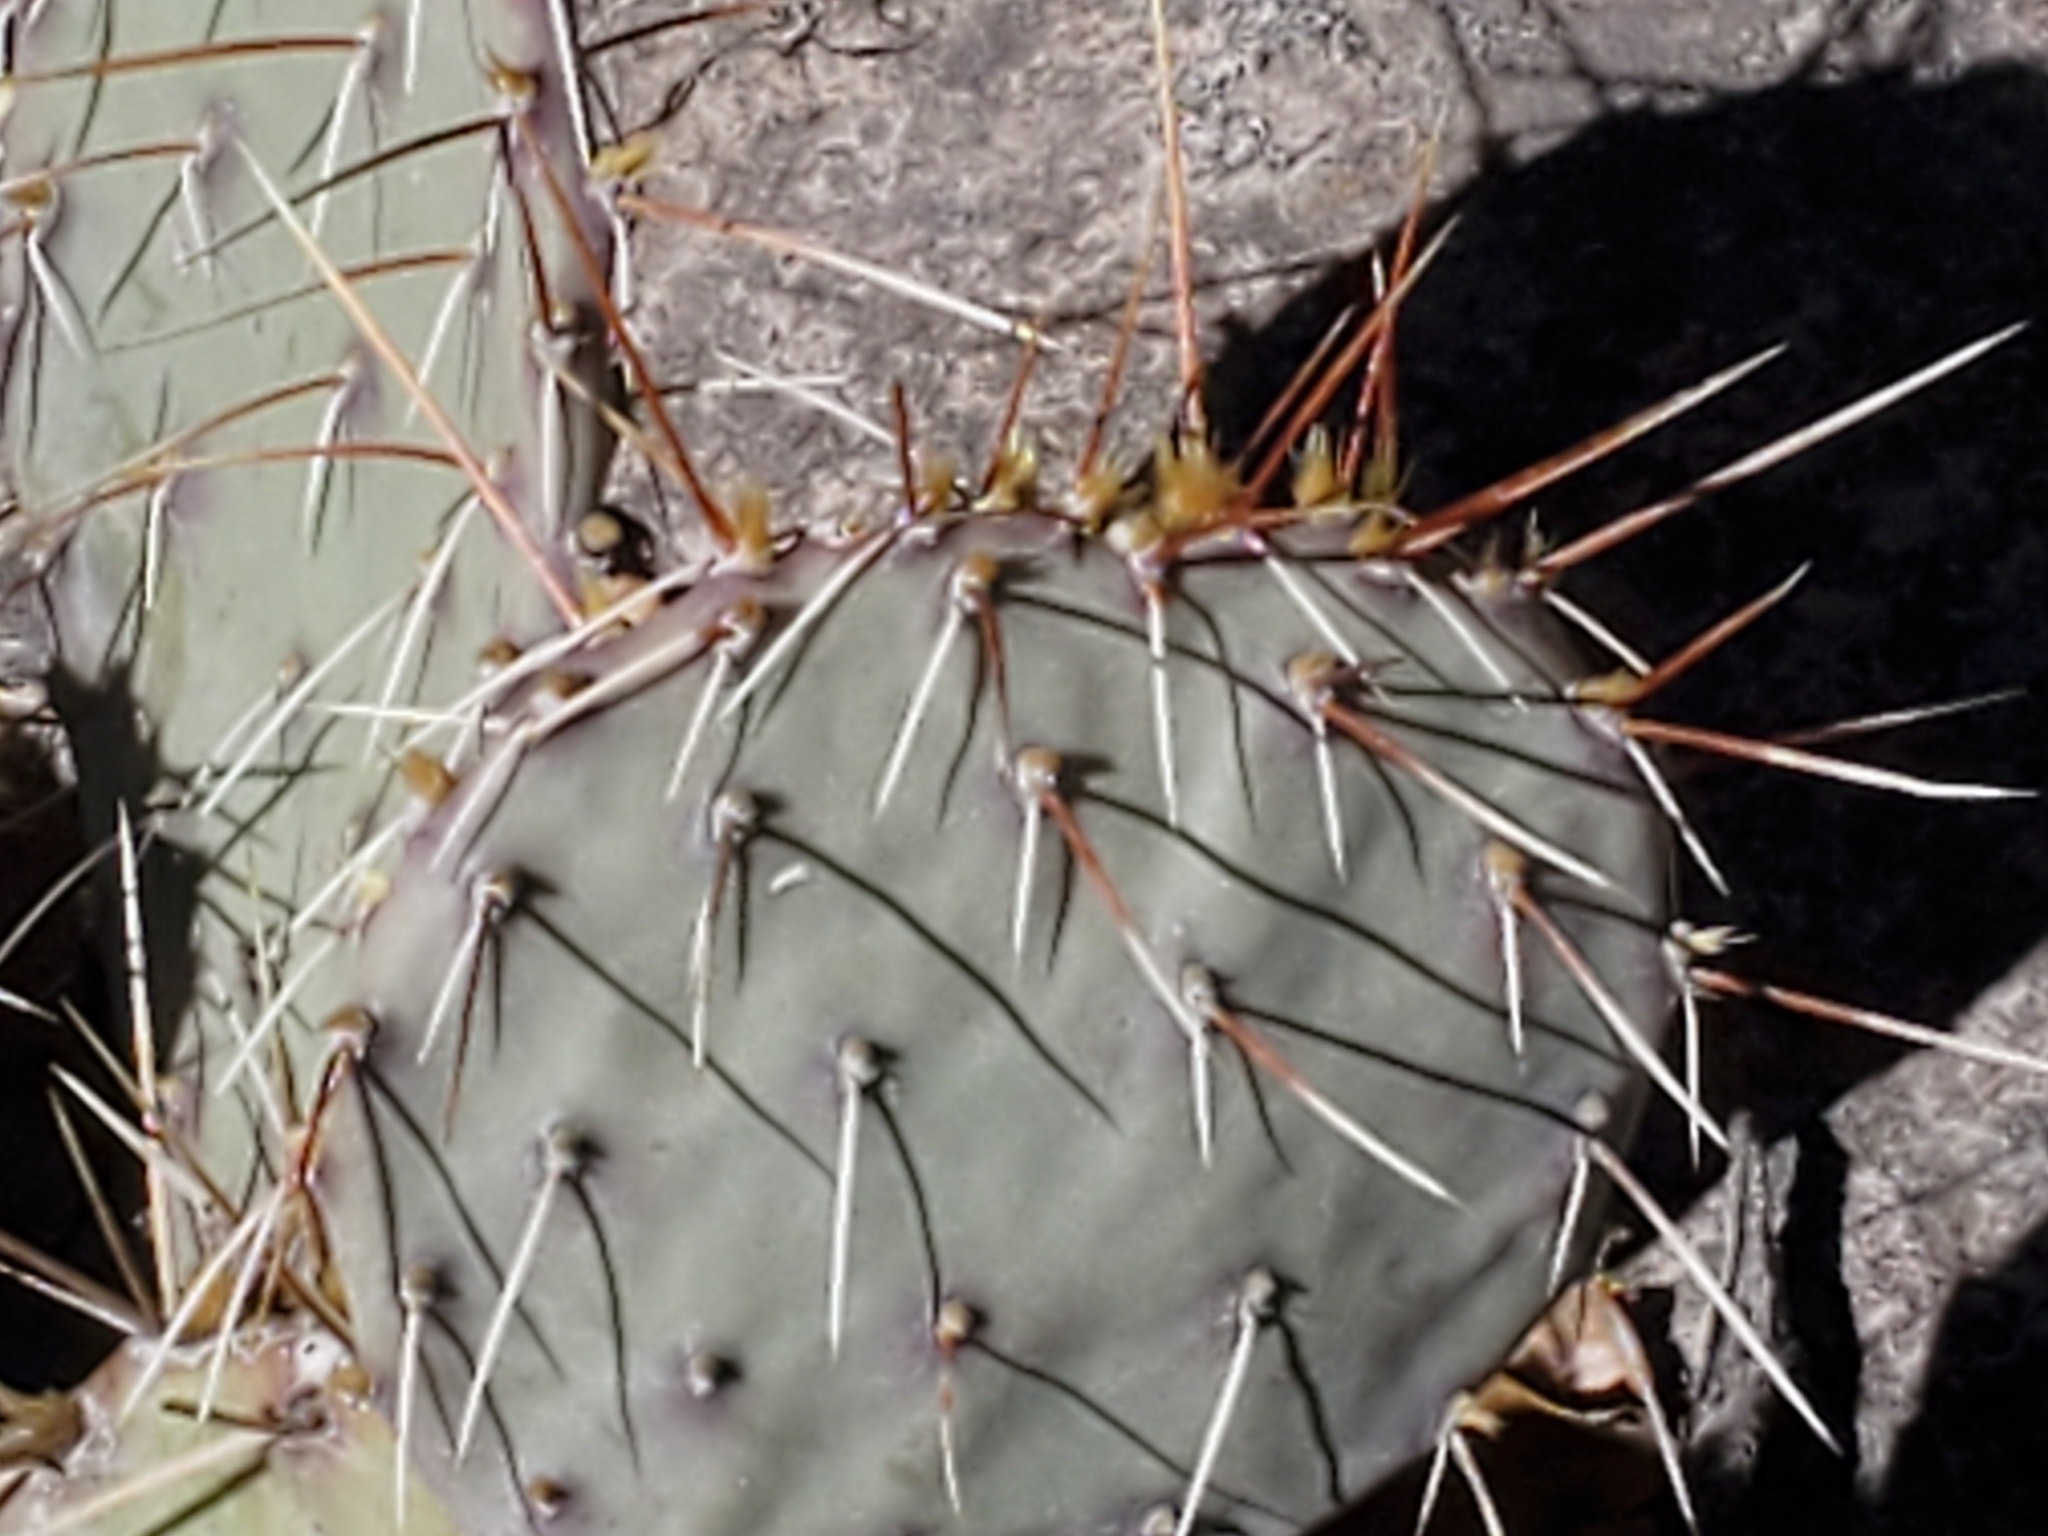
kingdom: Plantae
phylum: Tracheophyta
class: Magnoliopsida
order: Caryophyllales
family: Cactaceae
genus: Opuntia
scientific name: Opuntia phaeacantha
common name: New mexico prickly-pear
